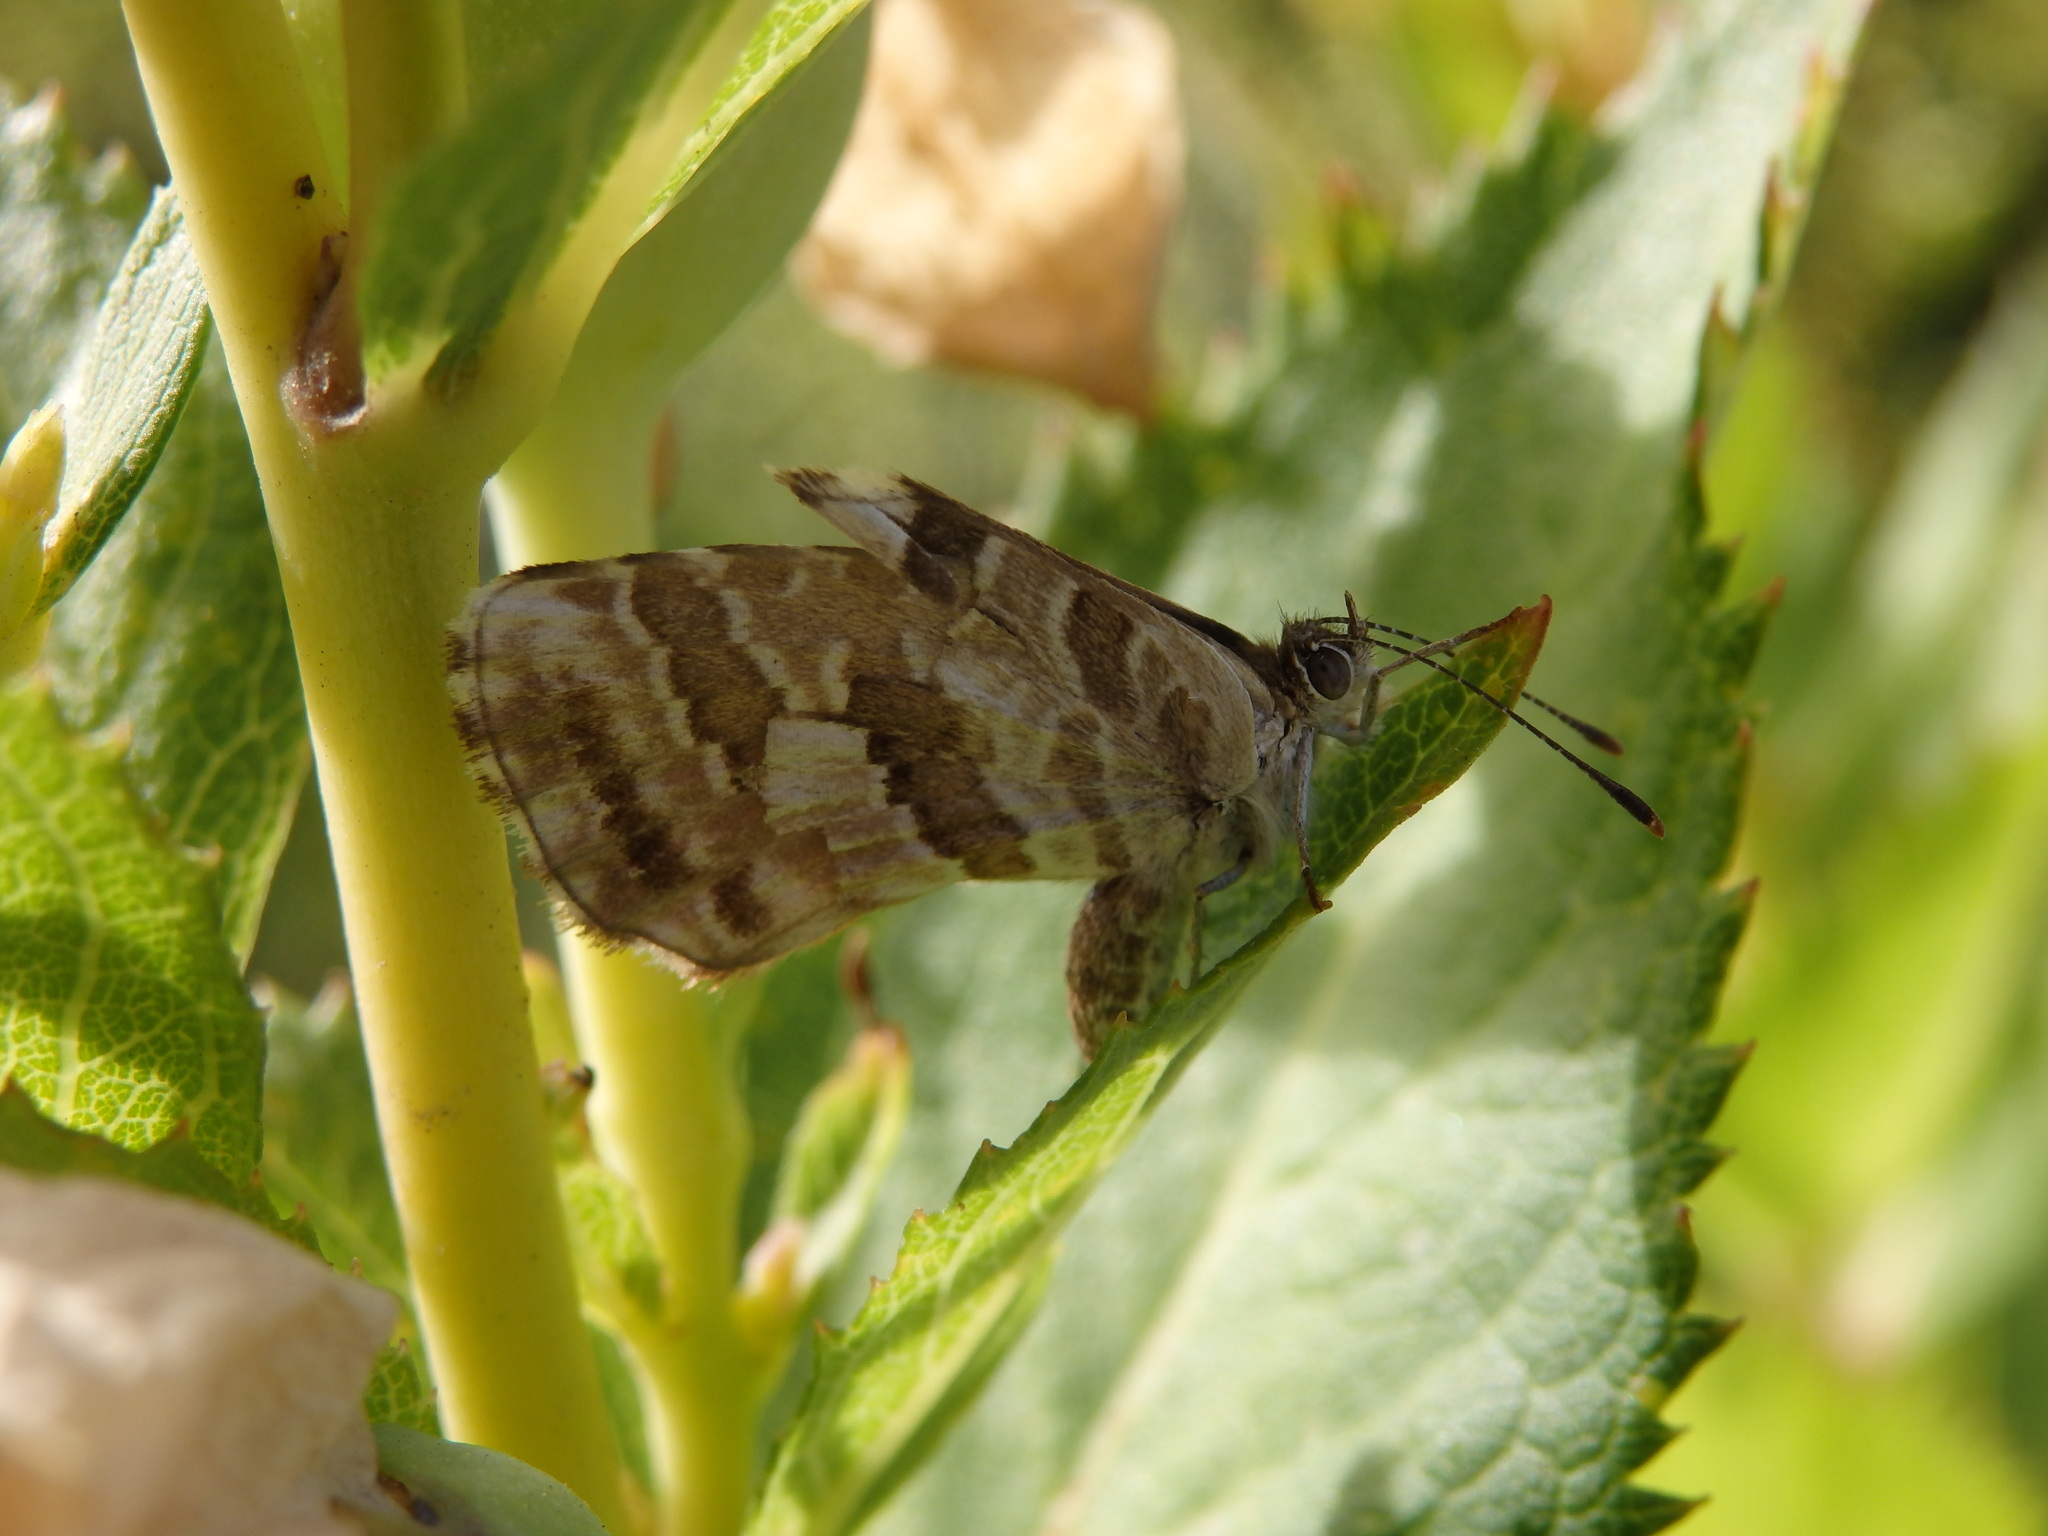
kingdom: Animalia
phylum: Arthropoda
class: Insecta
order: Lepidoptera
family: Lycaenidae
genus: Cacyreus
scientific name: Cacyreus marshalli
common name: Geranium bronze
